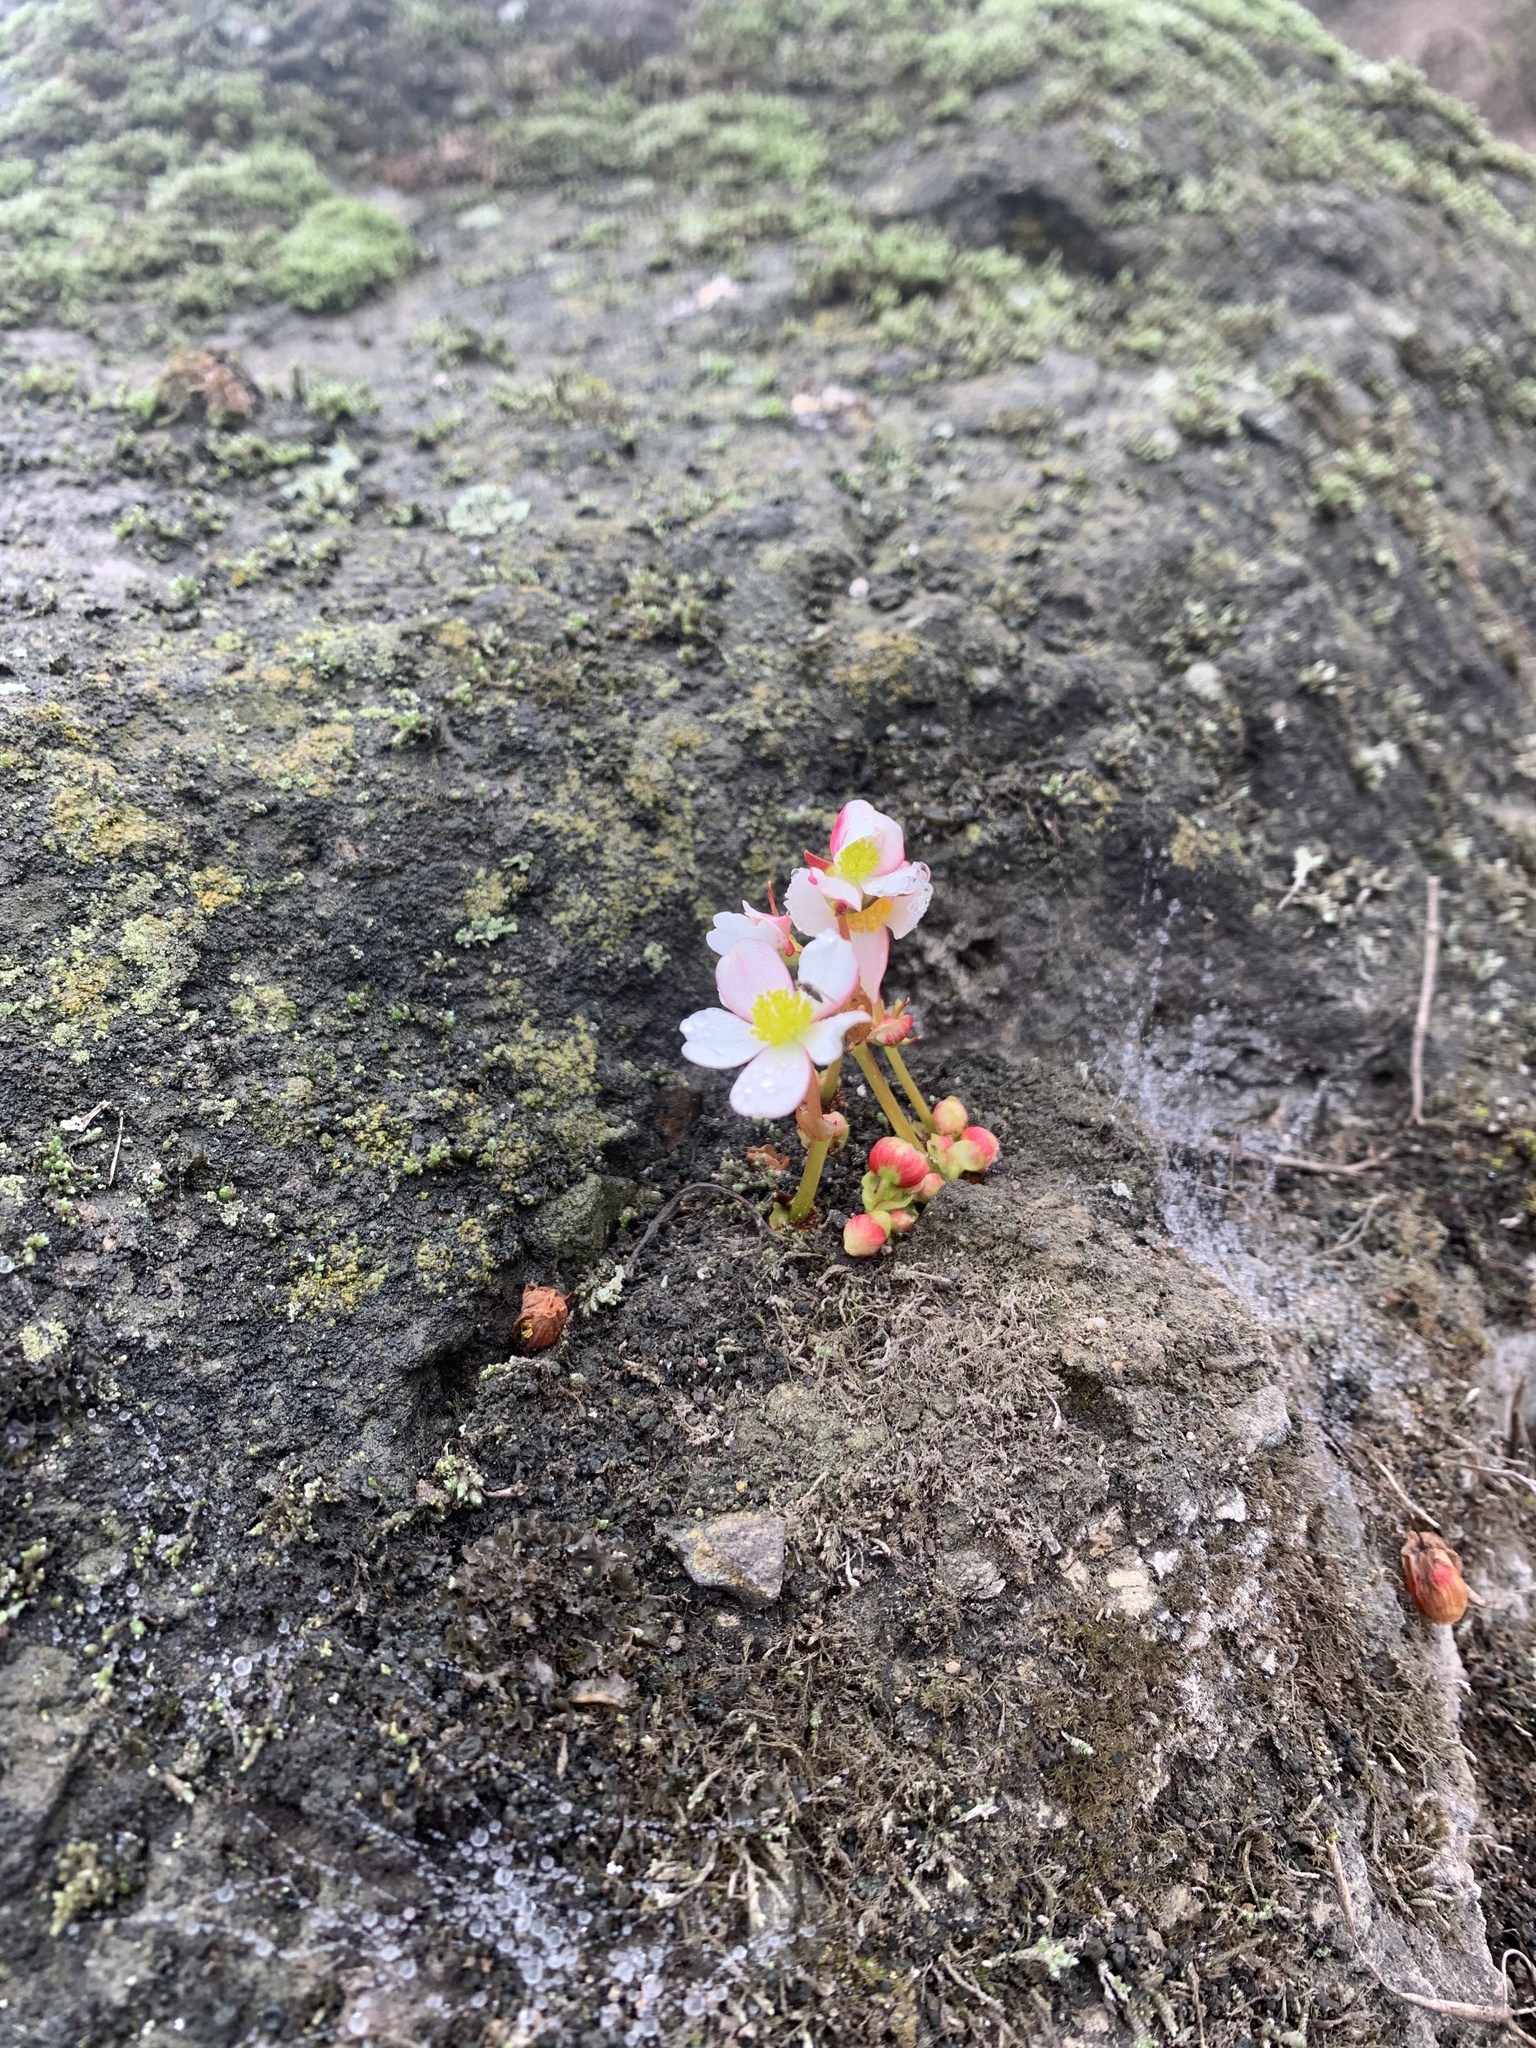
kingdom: Plantae
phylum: Tracheophyta
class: Magnoliopsida
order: Cucurbitales
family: Begoniaceae
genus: Begonia
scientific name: Begonia geraniifolia
